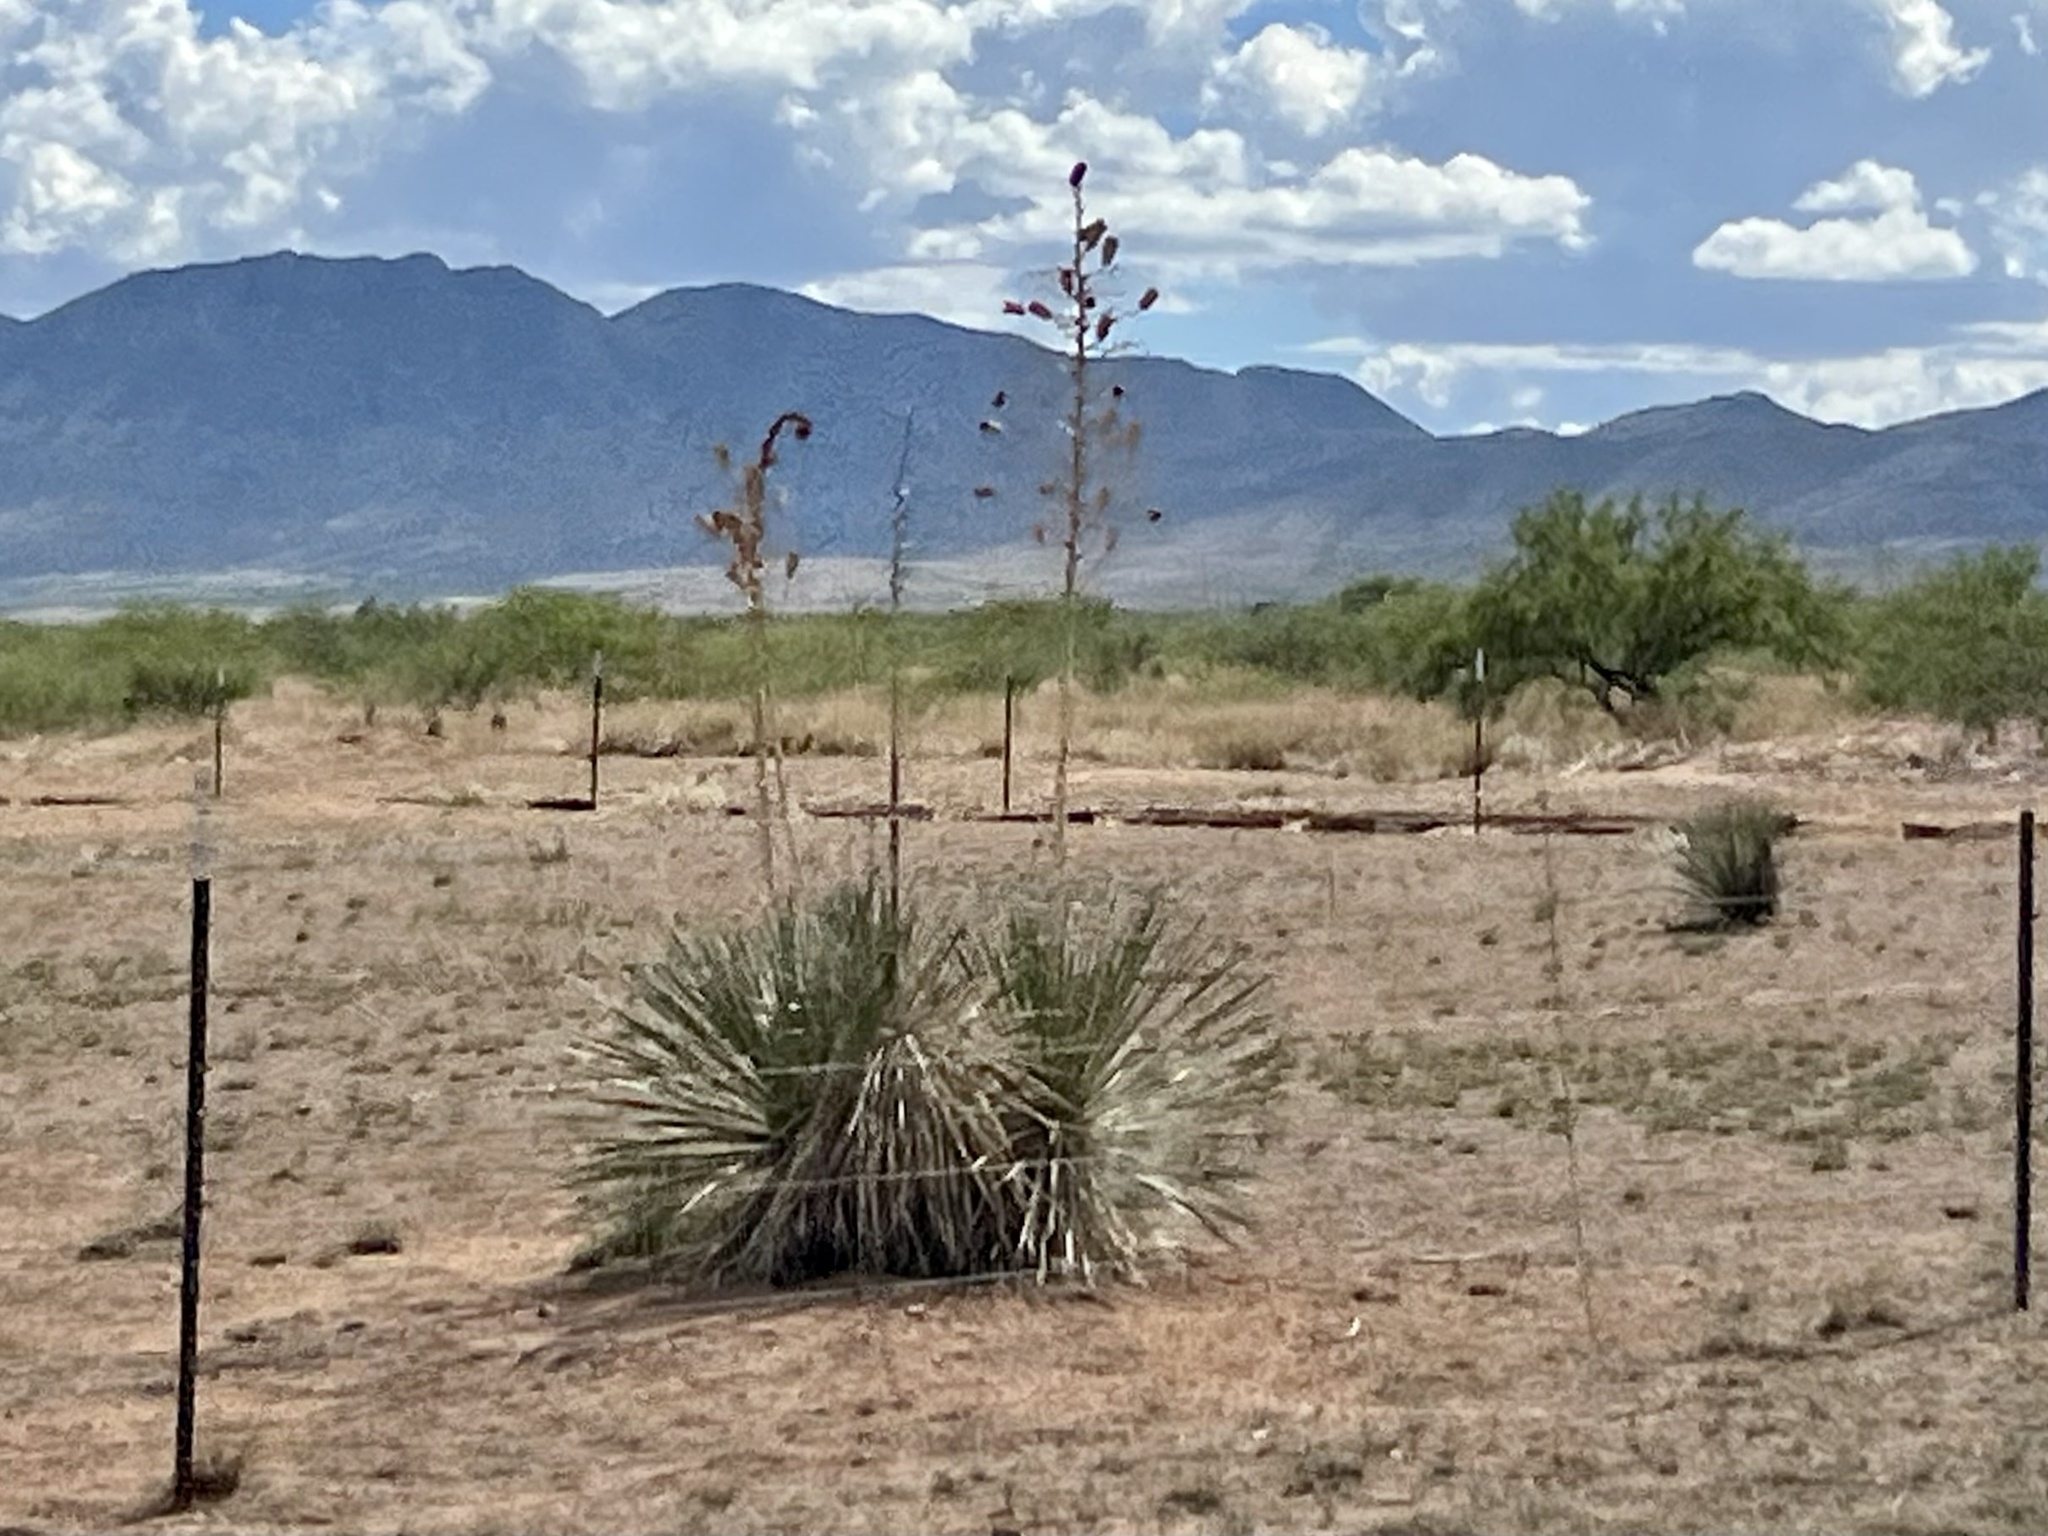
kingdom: Plantae
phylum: Tracheophyta
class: Liliopsida
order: Asparagales
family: Asparagaceae
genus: Yucca
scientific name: Yucca elata
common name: Palmella
